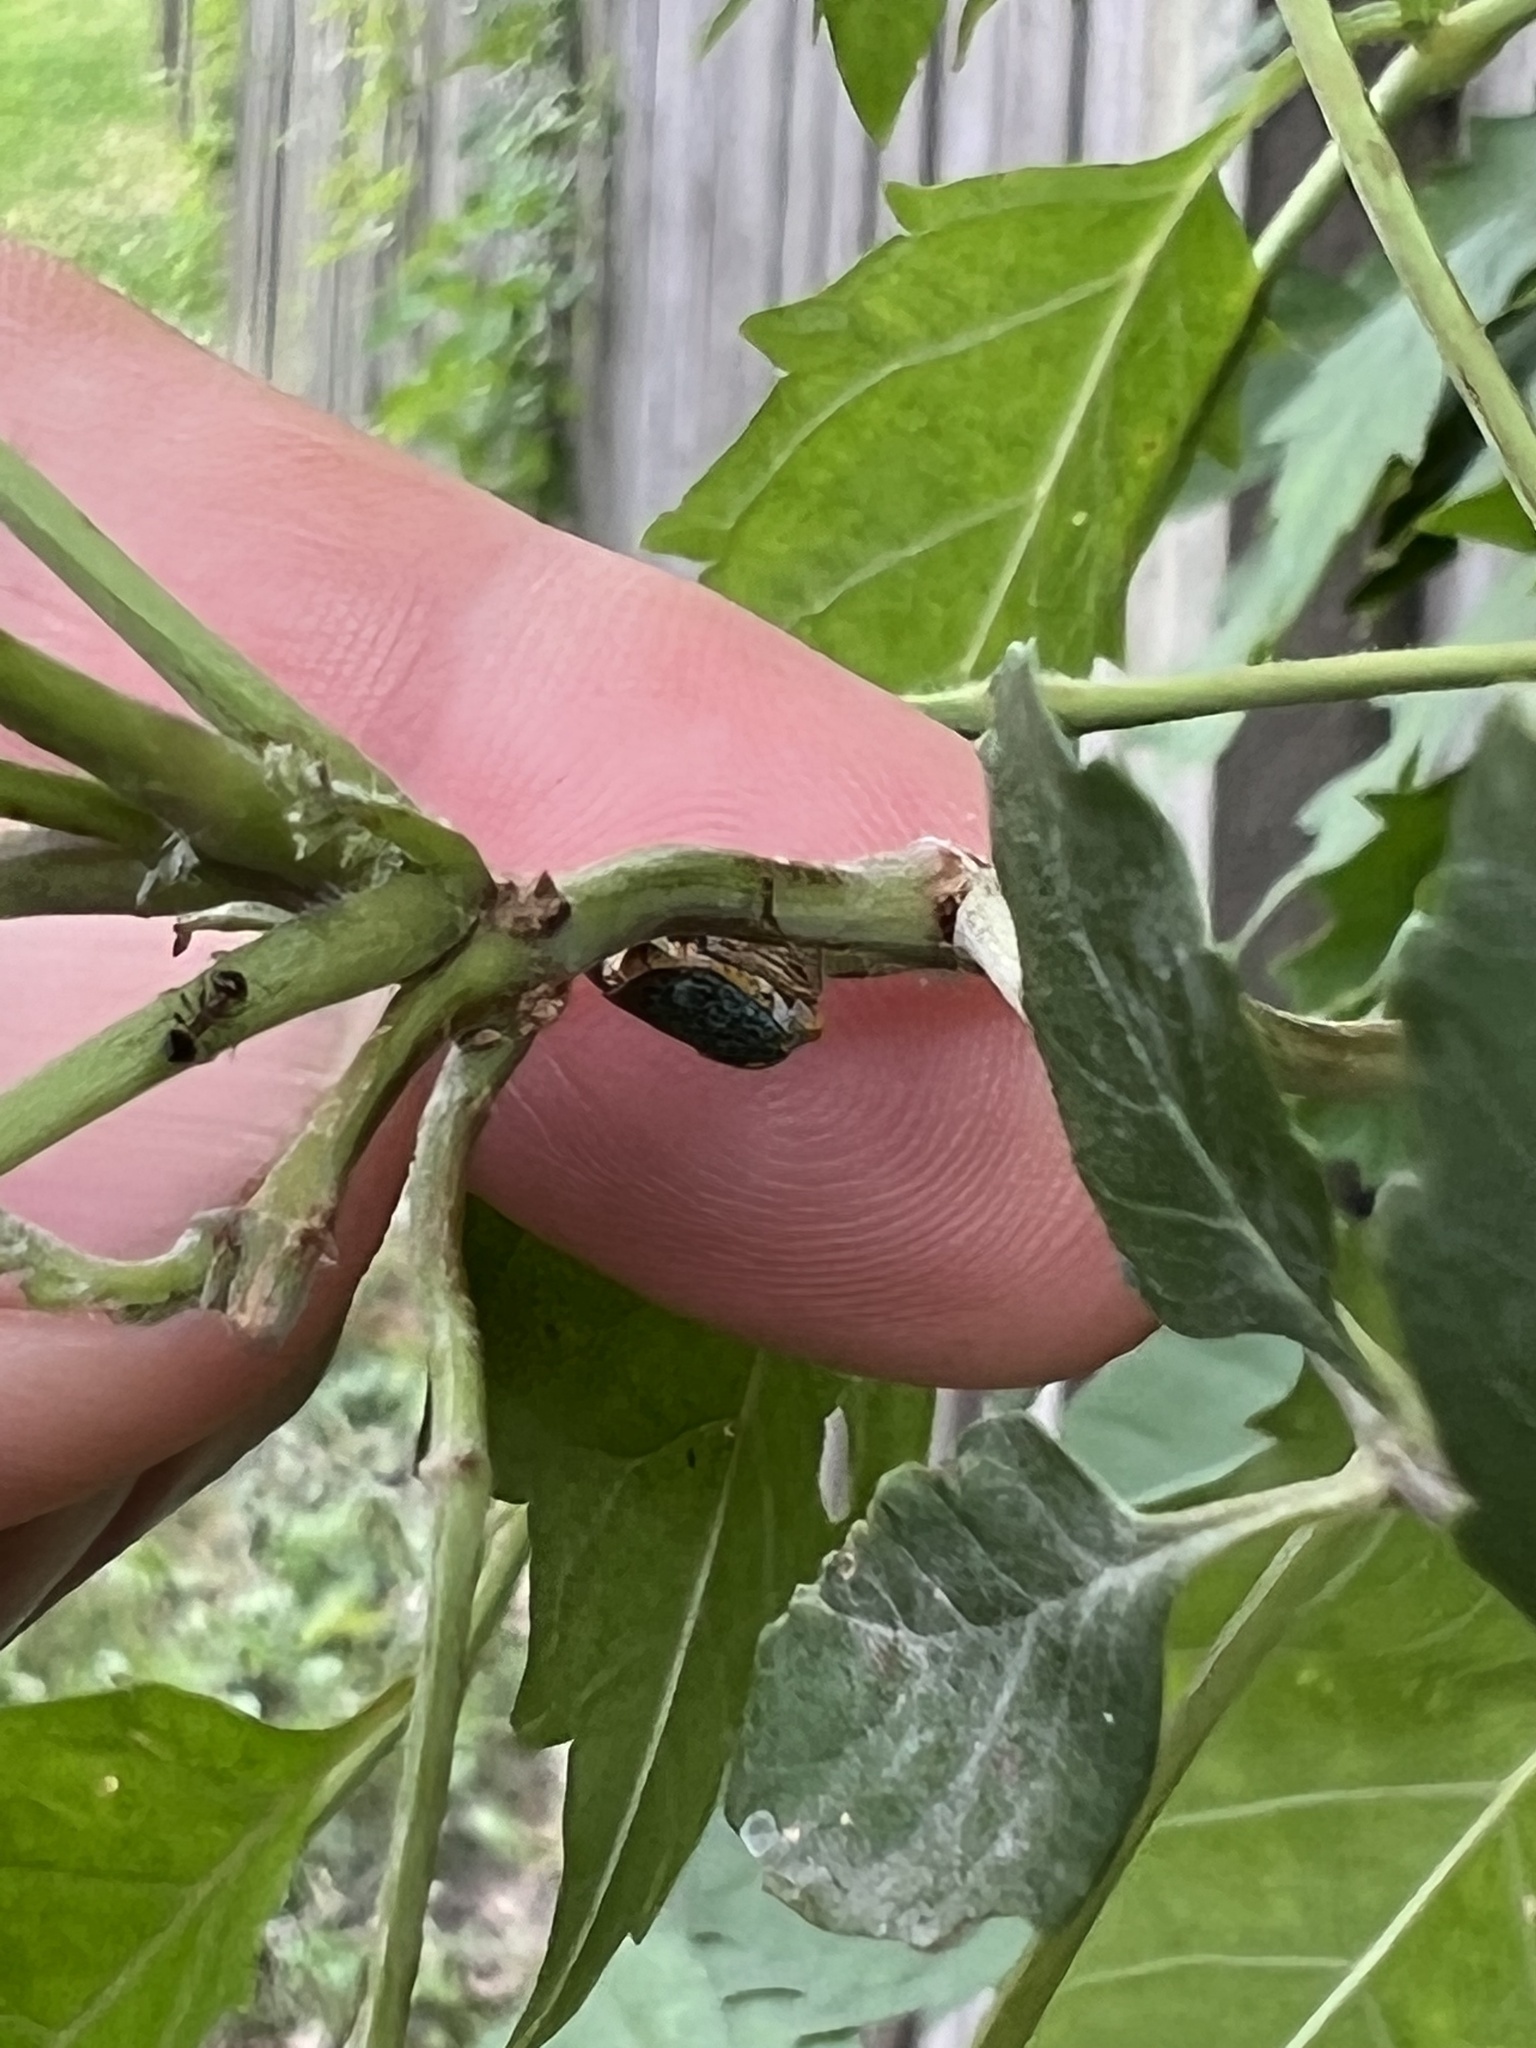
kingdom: Animalia
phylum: Arthropoda
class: Insecta
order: Hemiptera
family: Cicadellidae
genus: Oncometopia
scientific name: Oncometopia orbona
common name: Broad-headed sharpshooter
